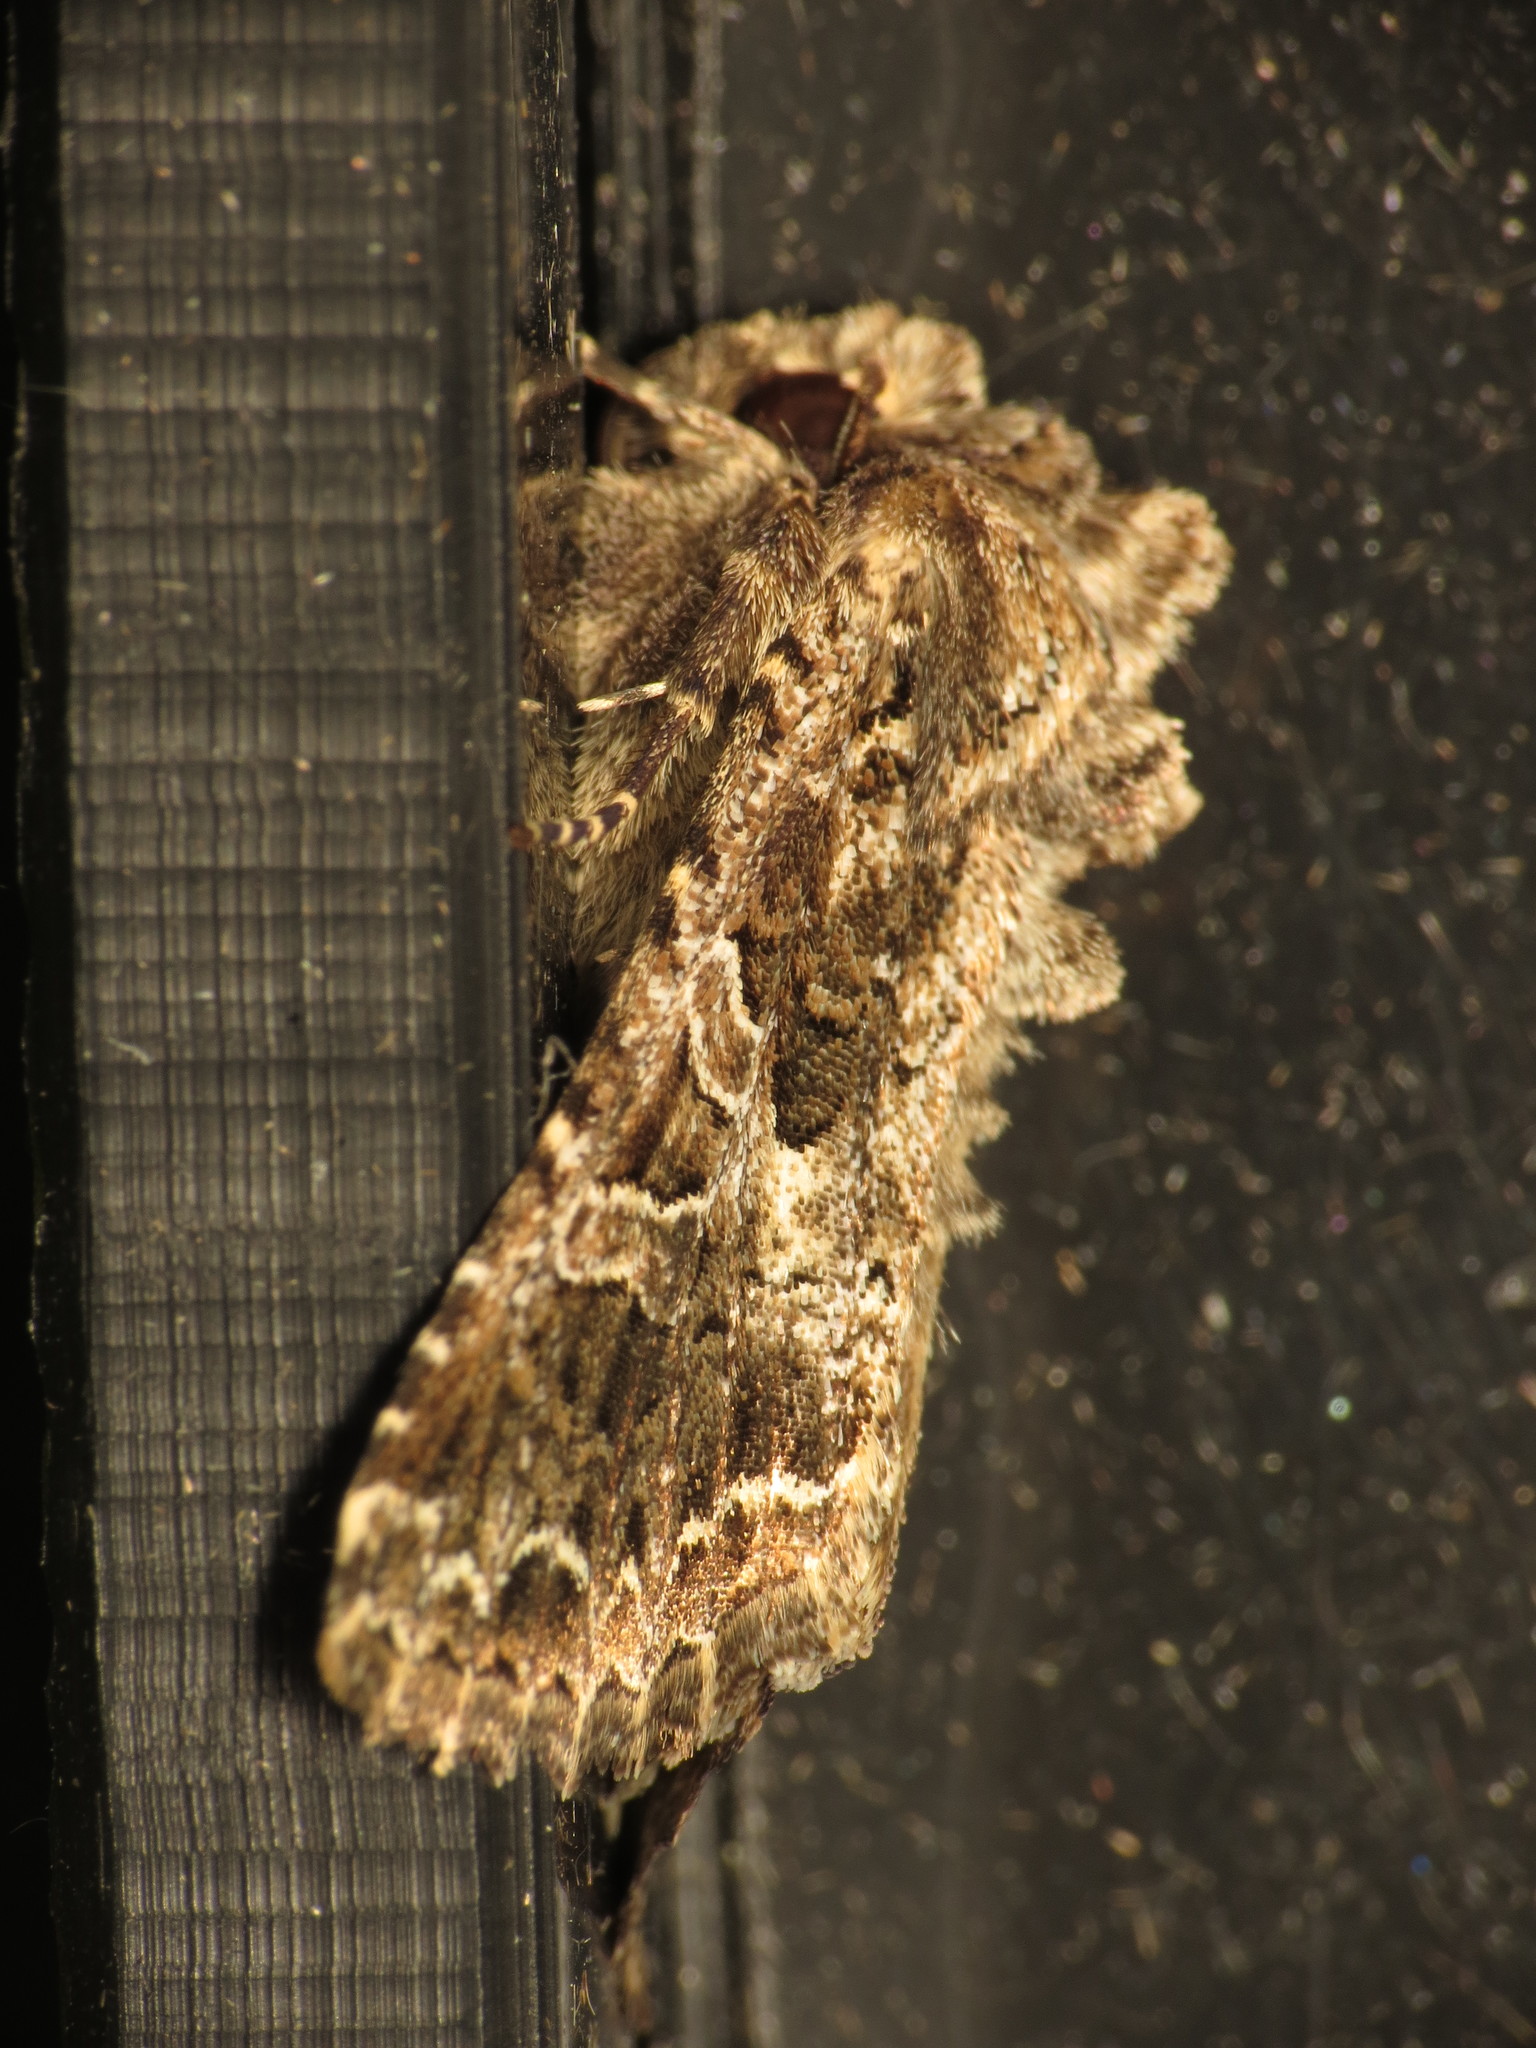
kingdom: Animalia
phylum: Arthropoda
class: Insecta
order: Lepidoptera
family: Noctuidae
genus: Hadena
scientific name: Hadena bicruris
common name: Lychnis
